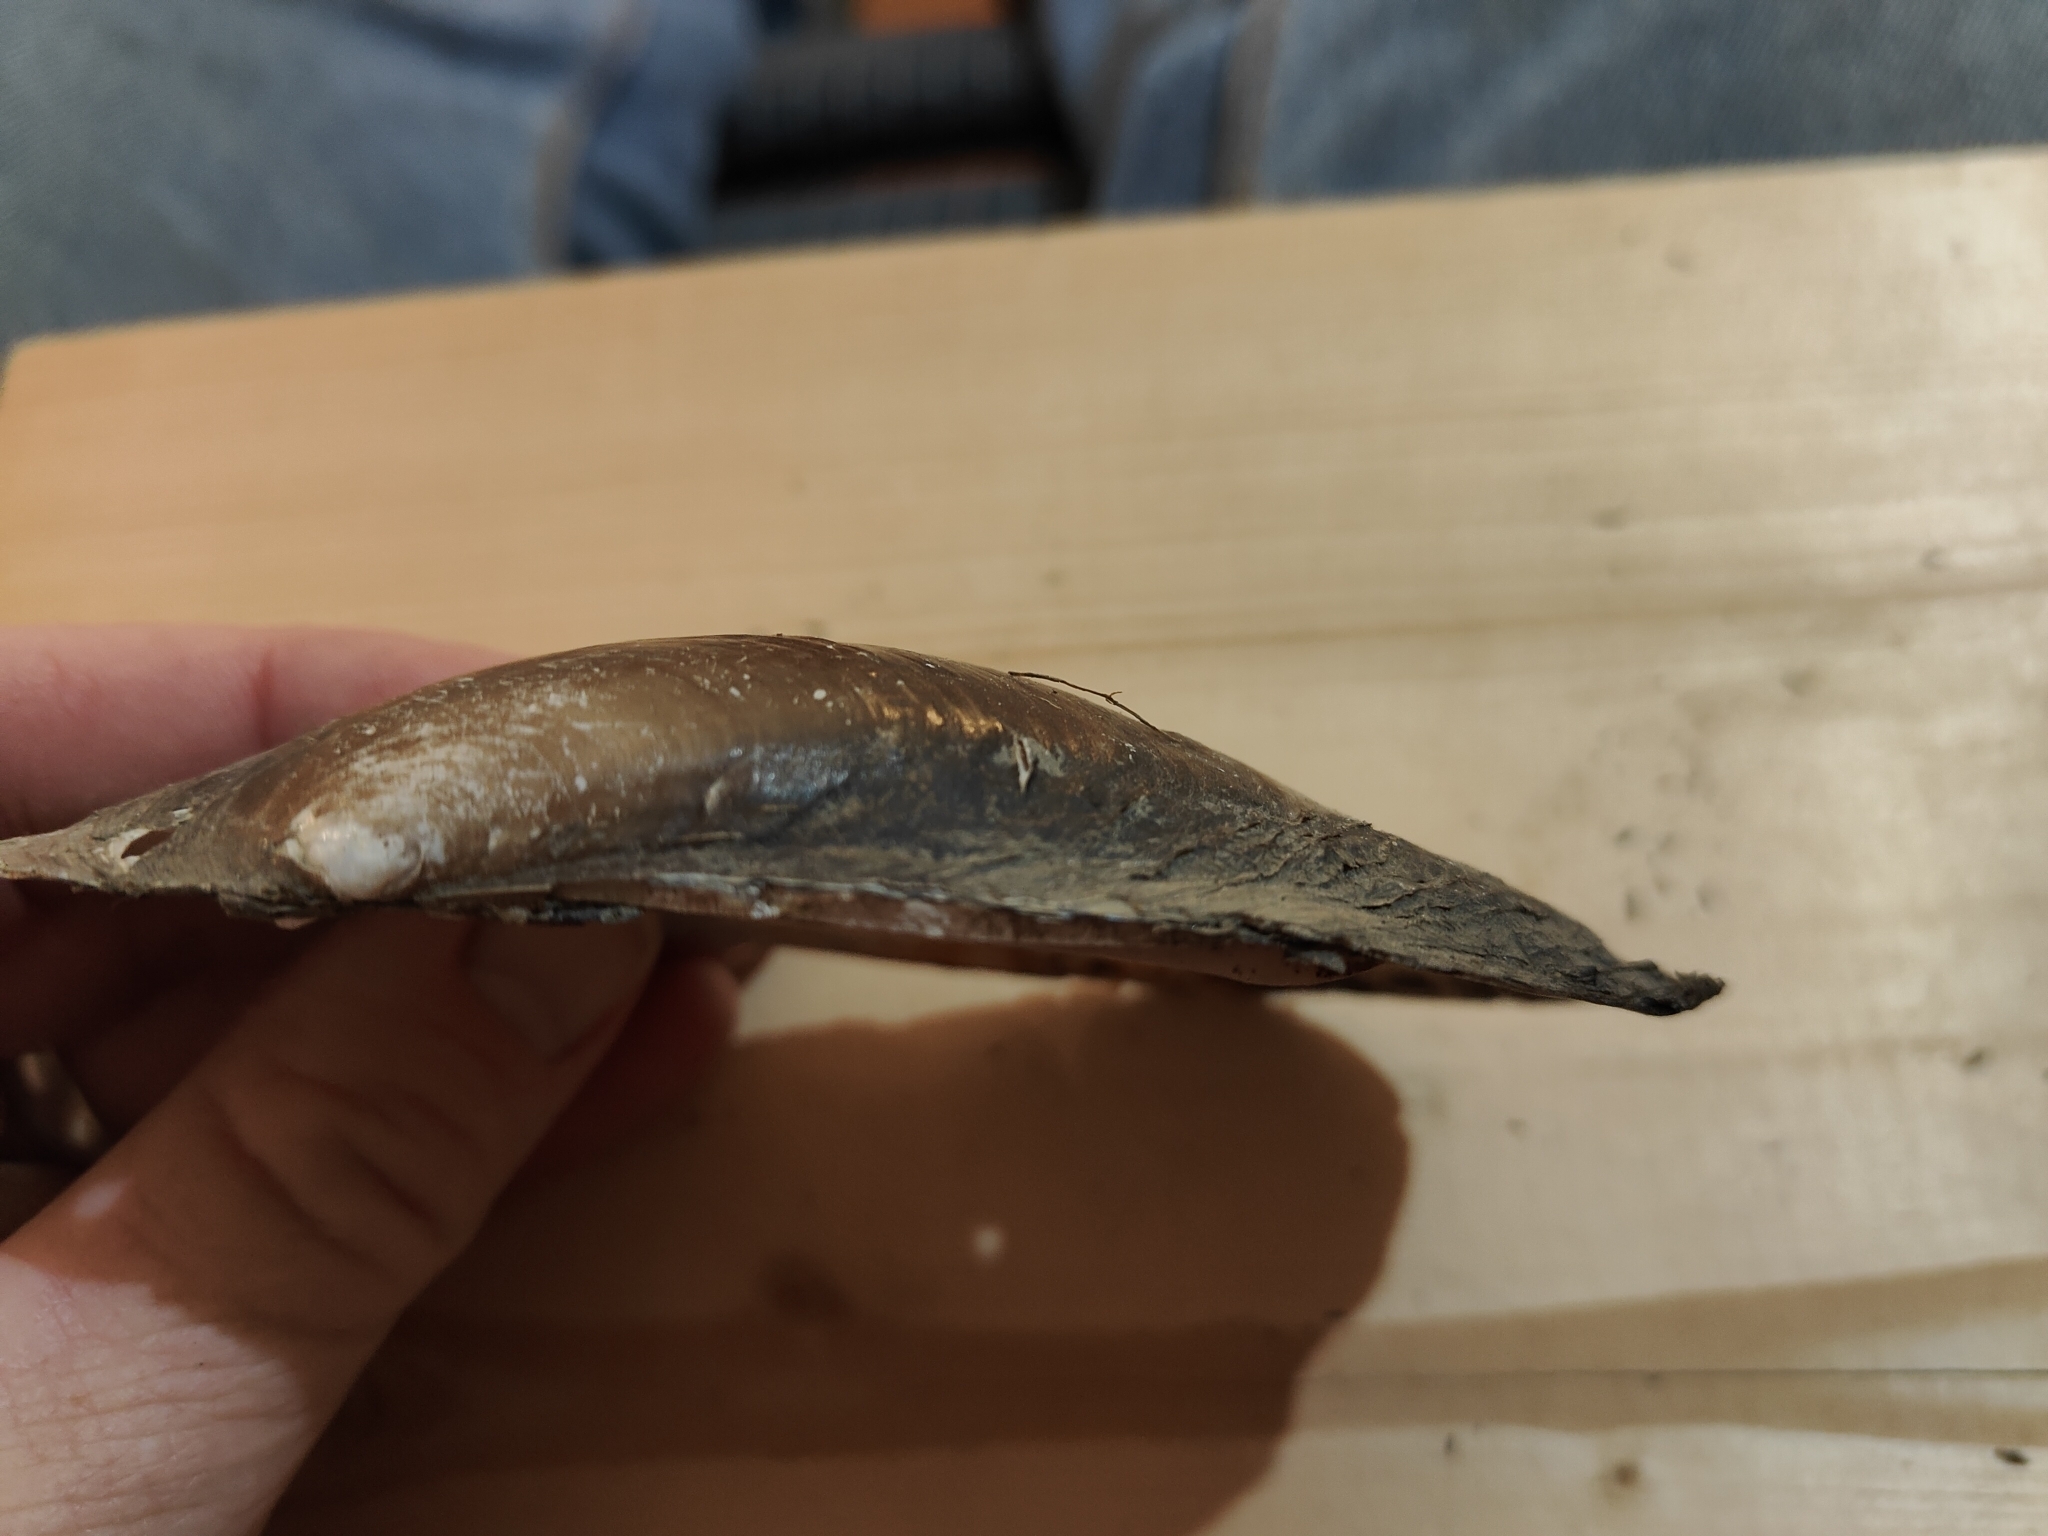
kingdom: Animalia
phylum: Mollusca
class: Bivalvia
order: Unionida
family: Unionidae
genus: Potamilus
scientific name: Potamilus ohiensis
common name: Pink papershell
